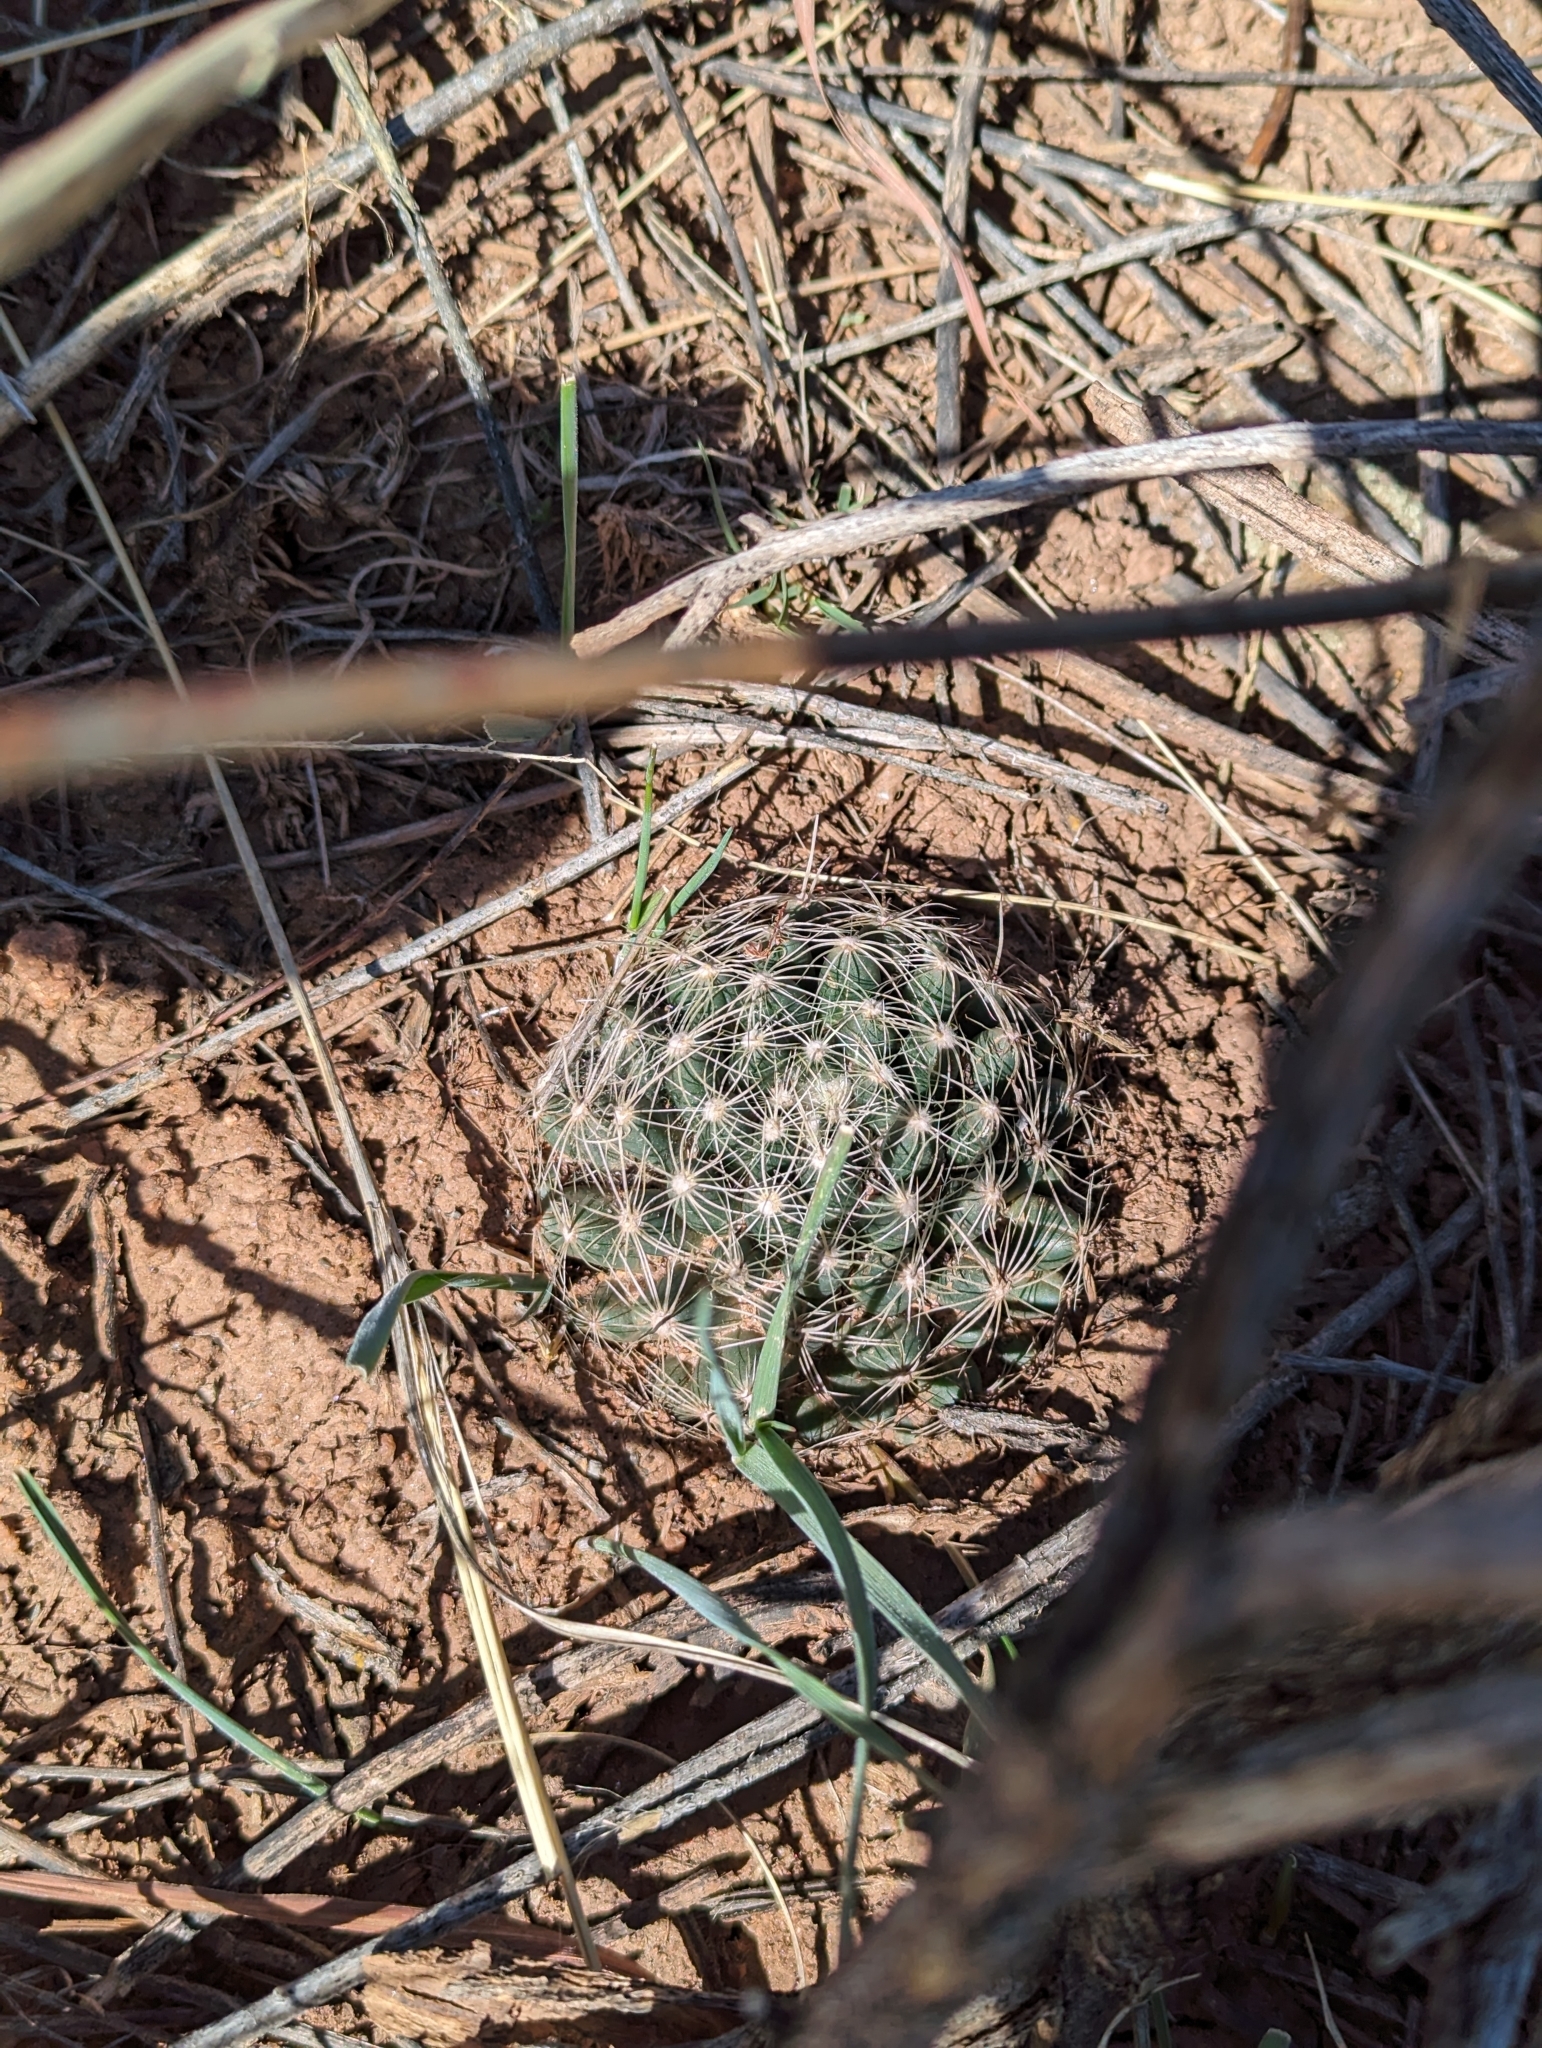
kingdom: Plantae
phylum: Tracheophyta
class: Magnoliopsida
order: Caryophyllales
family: Cactaceae
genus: Pelecyphora
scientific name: Pelecyphora missouriensis
